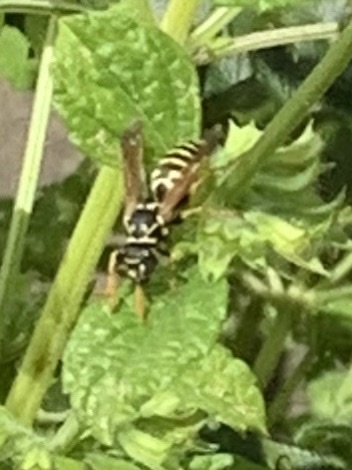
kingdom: Animalia
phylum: Arthropoda
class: Insecta
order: Hymenoptera
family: Eumenidae
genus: Polistes
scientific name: Polistes dominula
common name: Paper wasp
